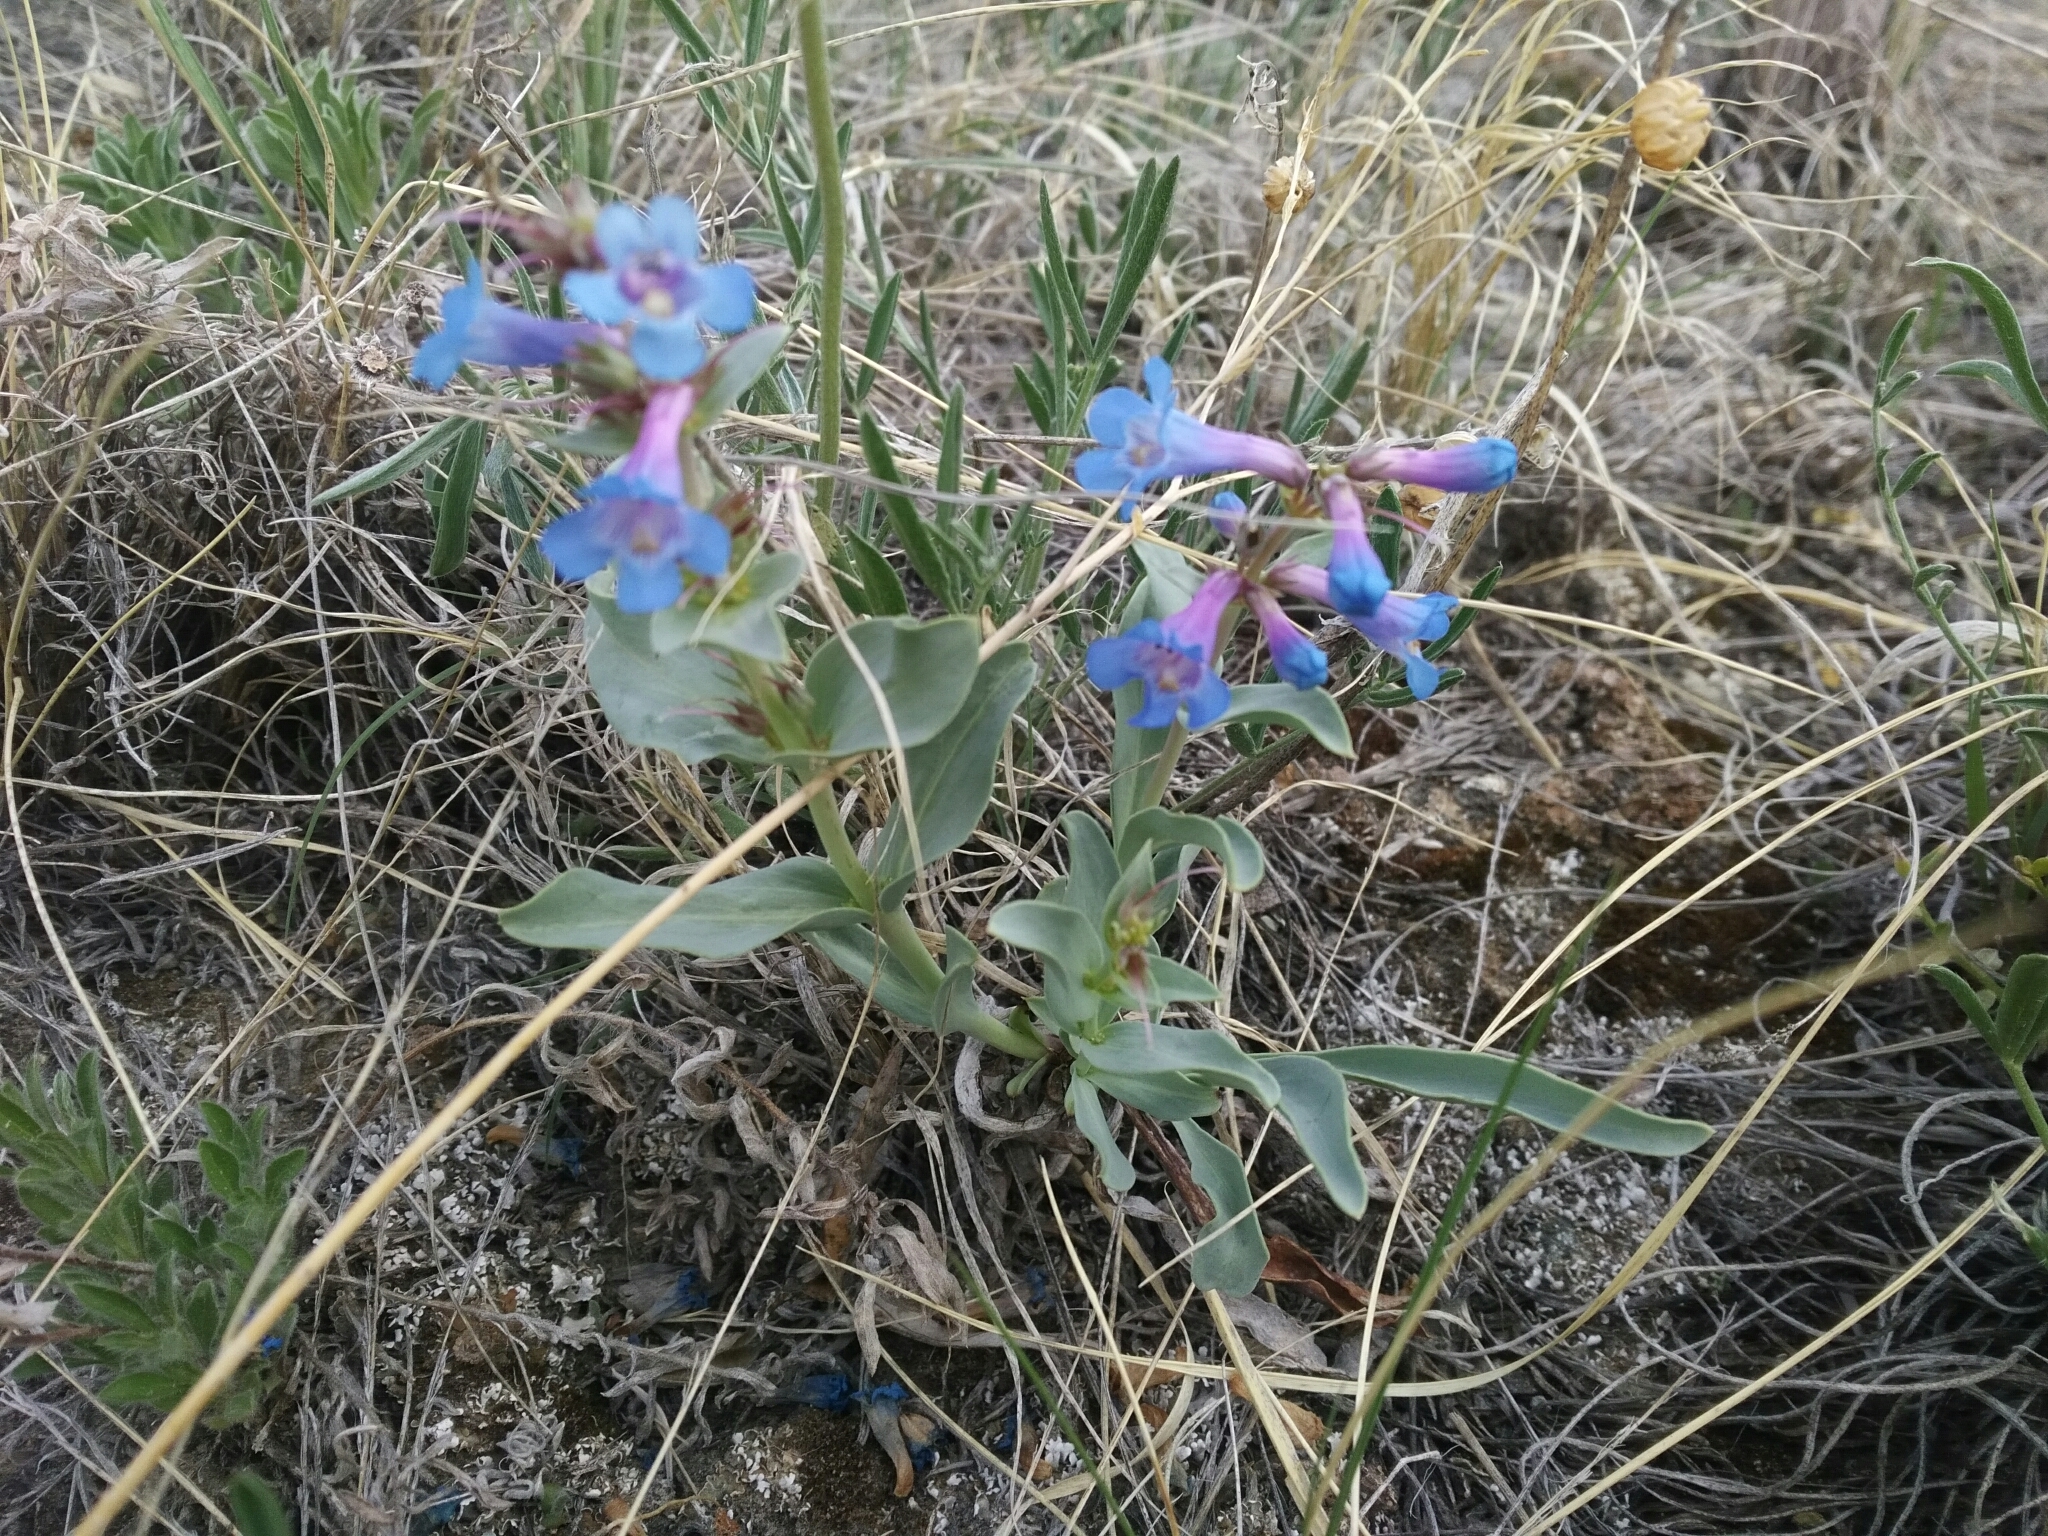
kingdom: Plantae
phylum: Tracheophyta
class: Magnoliopsida
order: Lamiales
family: Plantaginaceae
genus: Penstemon
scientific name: Penstemon nitidus
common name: Shining penstemon
